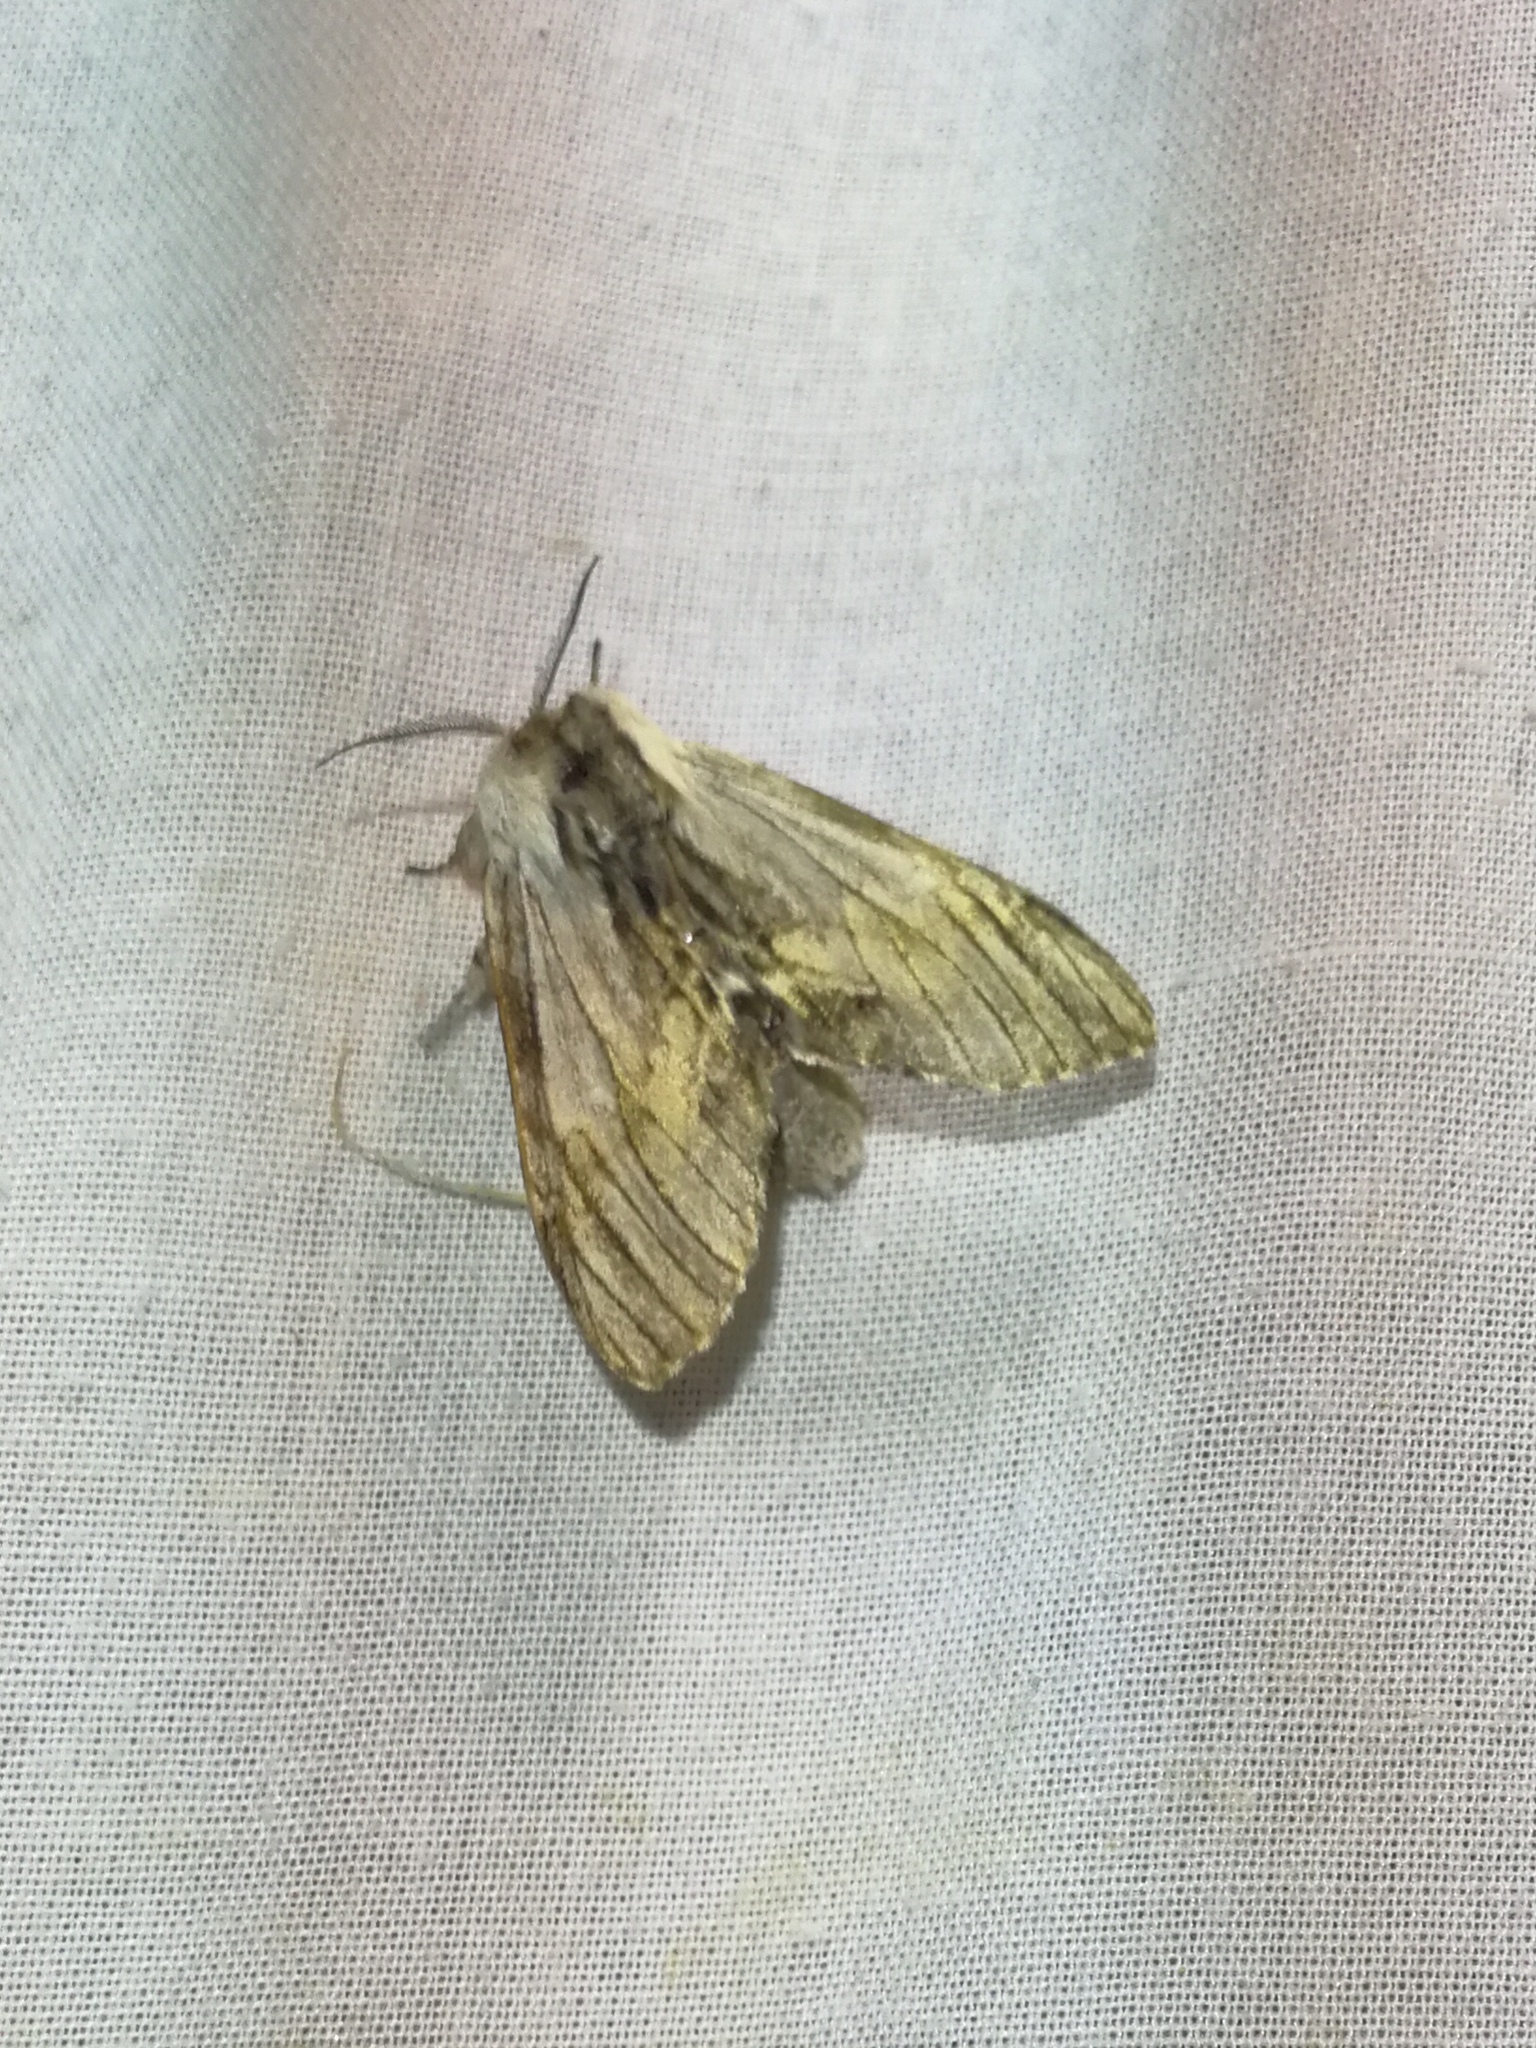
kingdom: Animalia
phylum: Arthropoda
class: Insecta
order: Lepidoptera
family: Notodontidae
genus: Harpyia
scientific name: Harpyia milhauseri
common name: Tawny prominent
